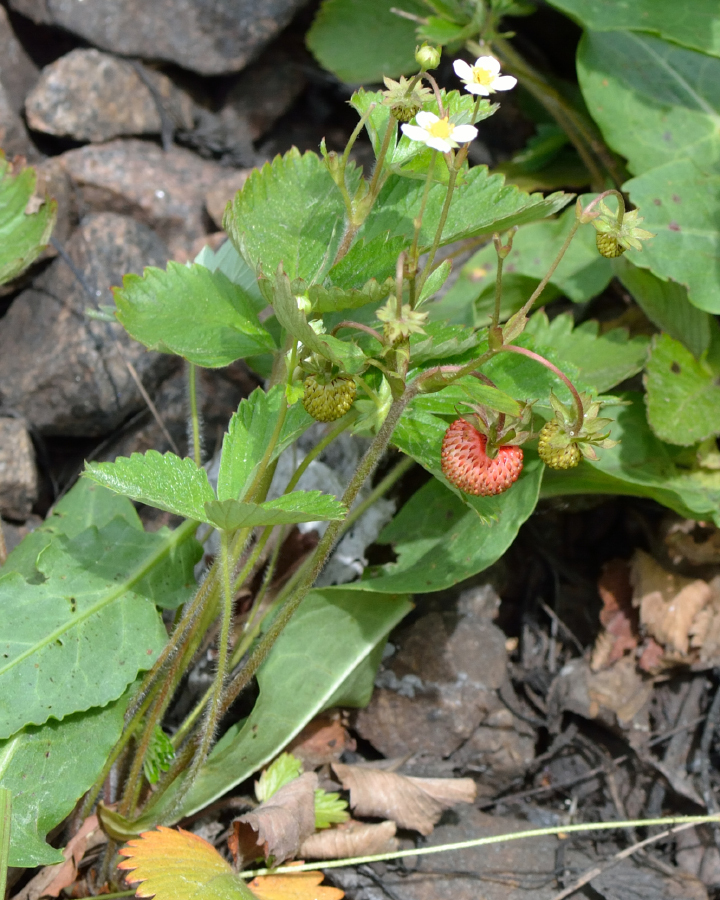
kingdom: Plantae
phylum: Tracheophyta
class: Magnoliopsida
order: Rosales
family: Rosaceae
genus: Fragaria
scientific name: Fragaria vesca
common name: Wild strawberry
